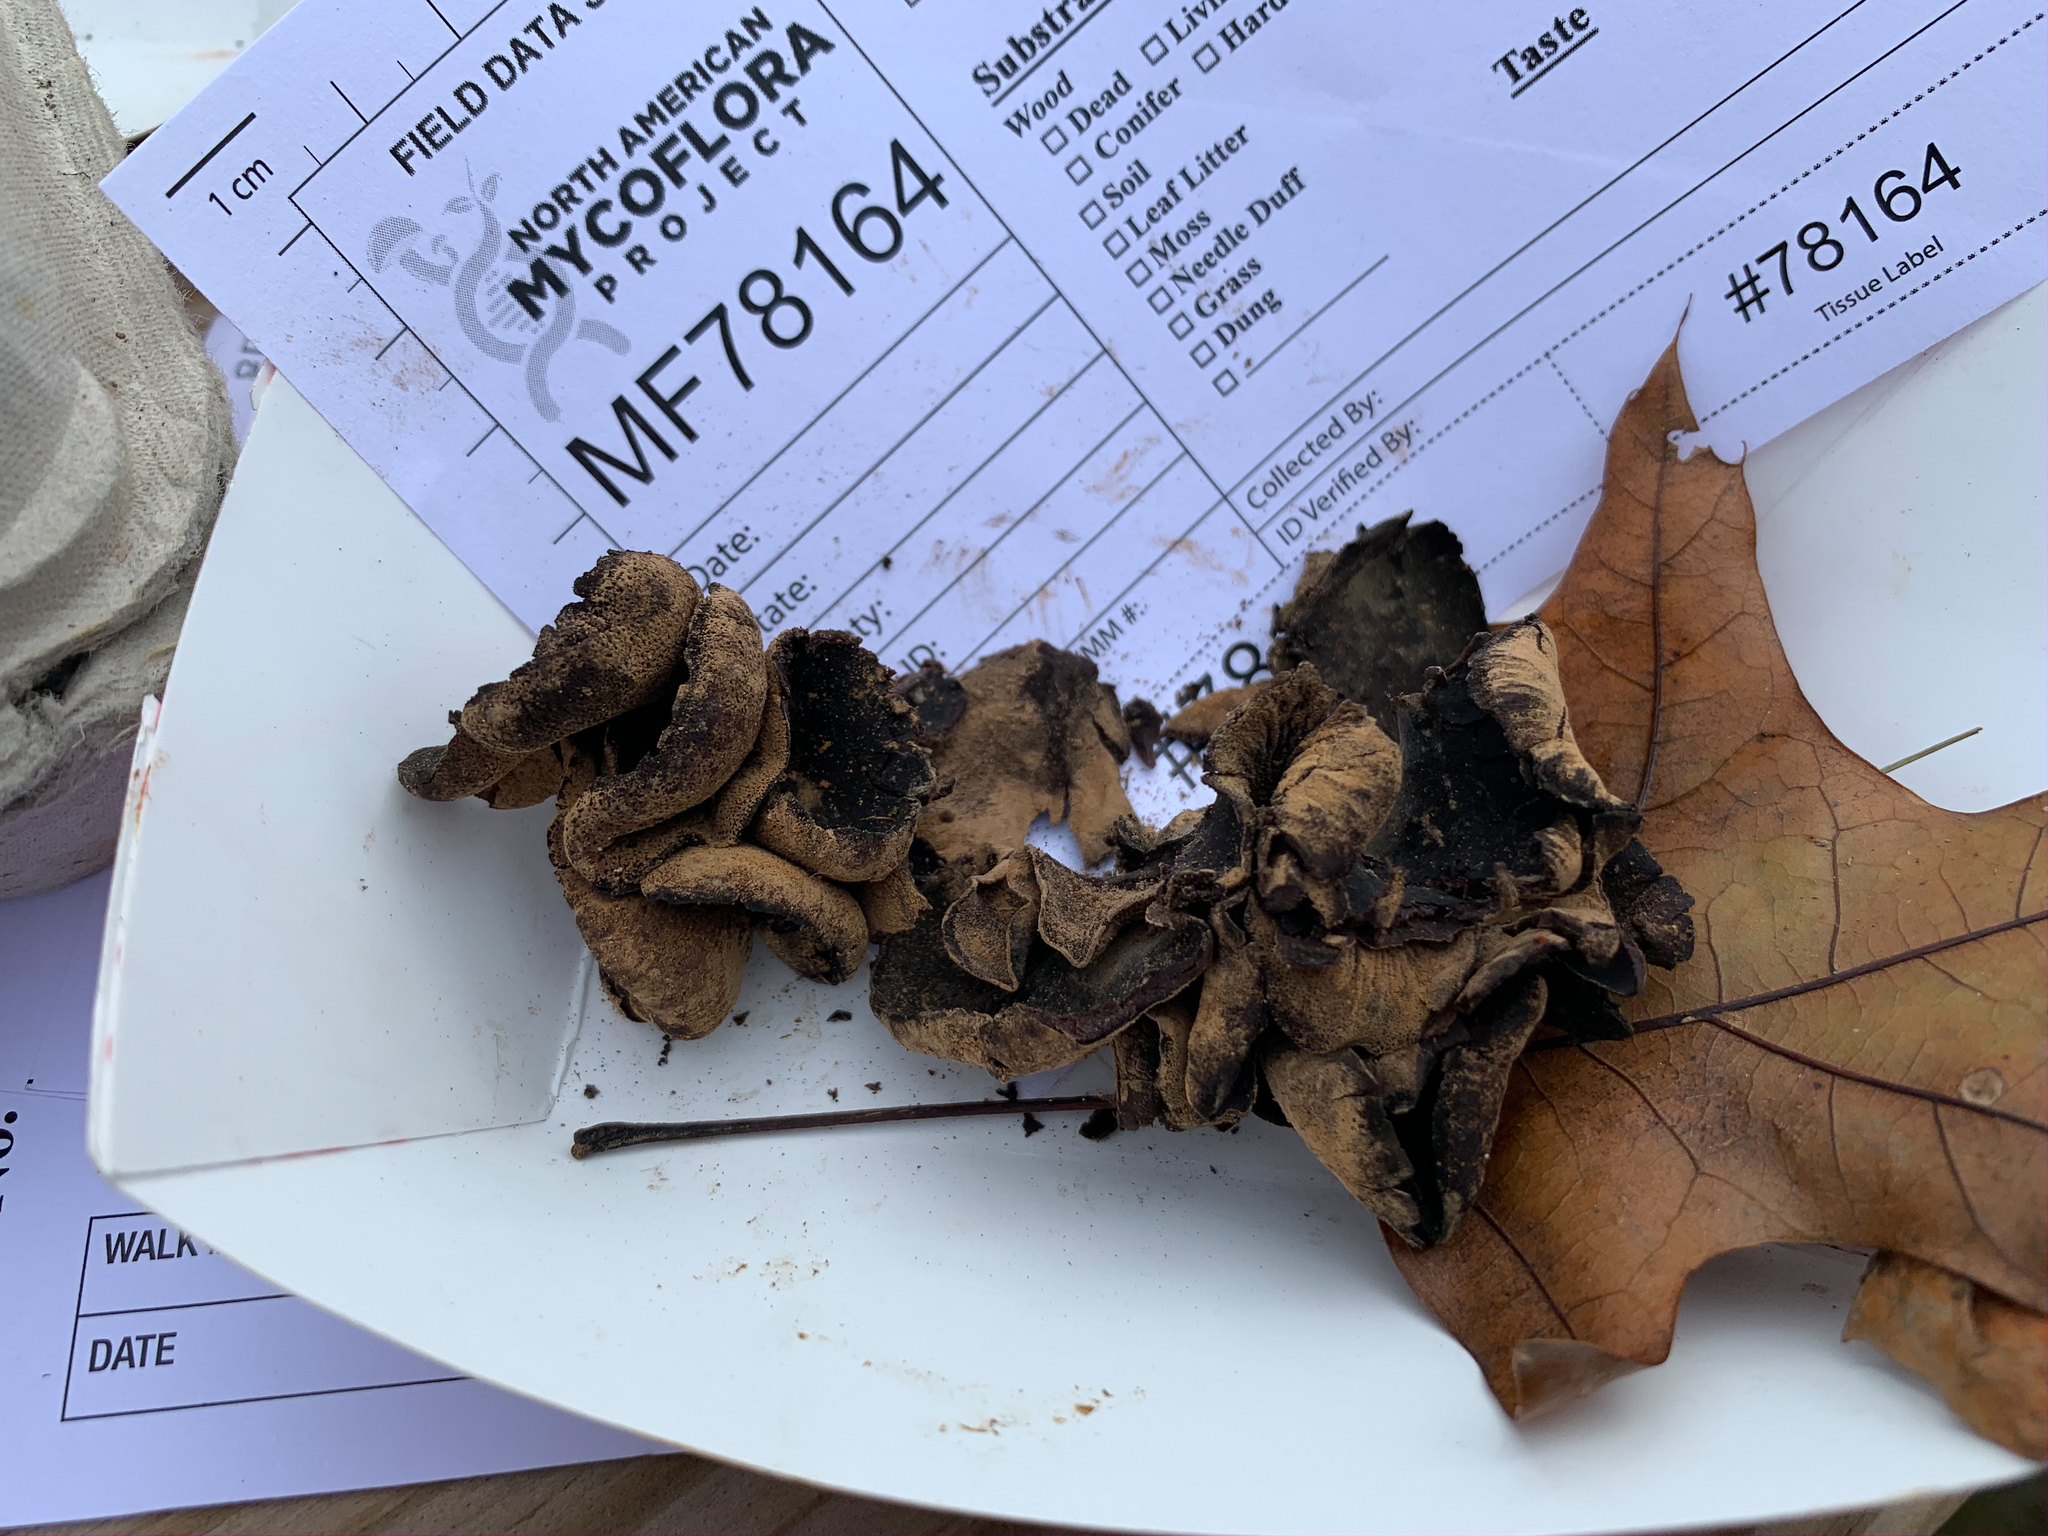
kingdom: Fungi
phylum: Ascomycota
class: Leotiomycetes
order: Helotiales
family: Cordieritidaceae
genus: Diplocarpa
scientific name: Diplocarpa irregularis
